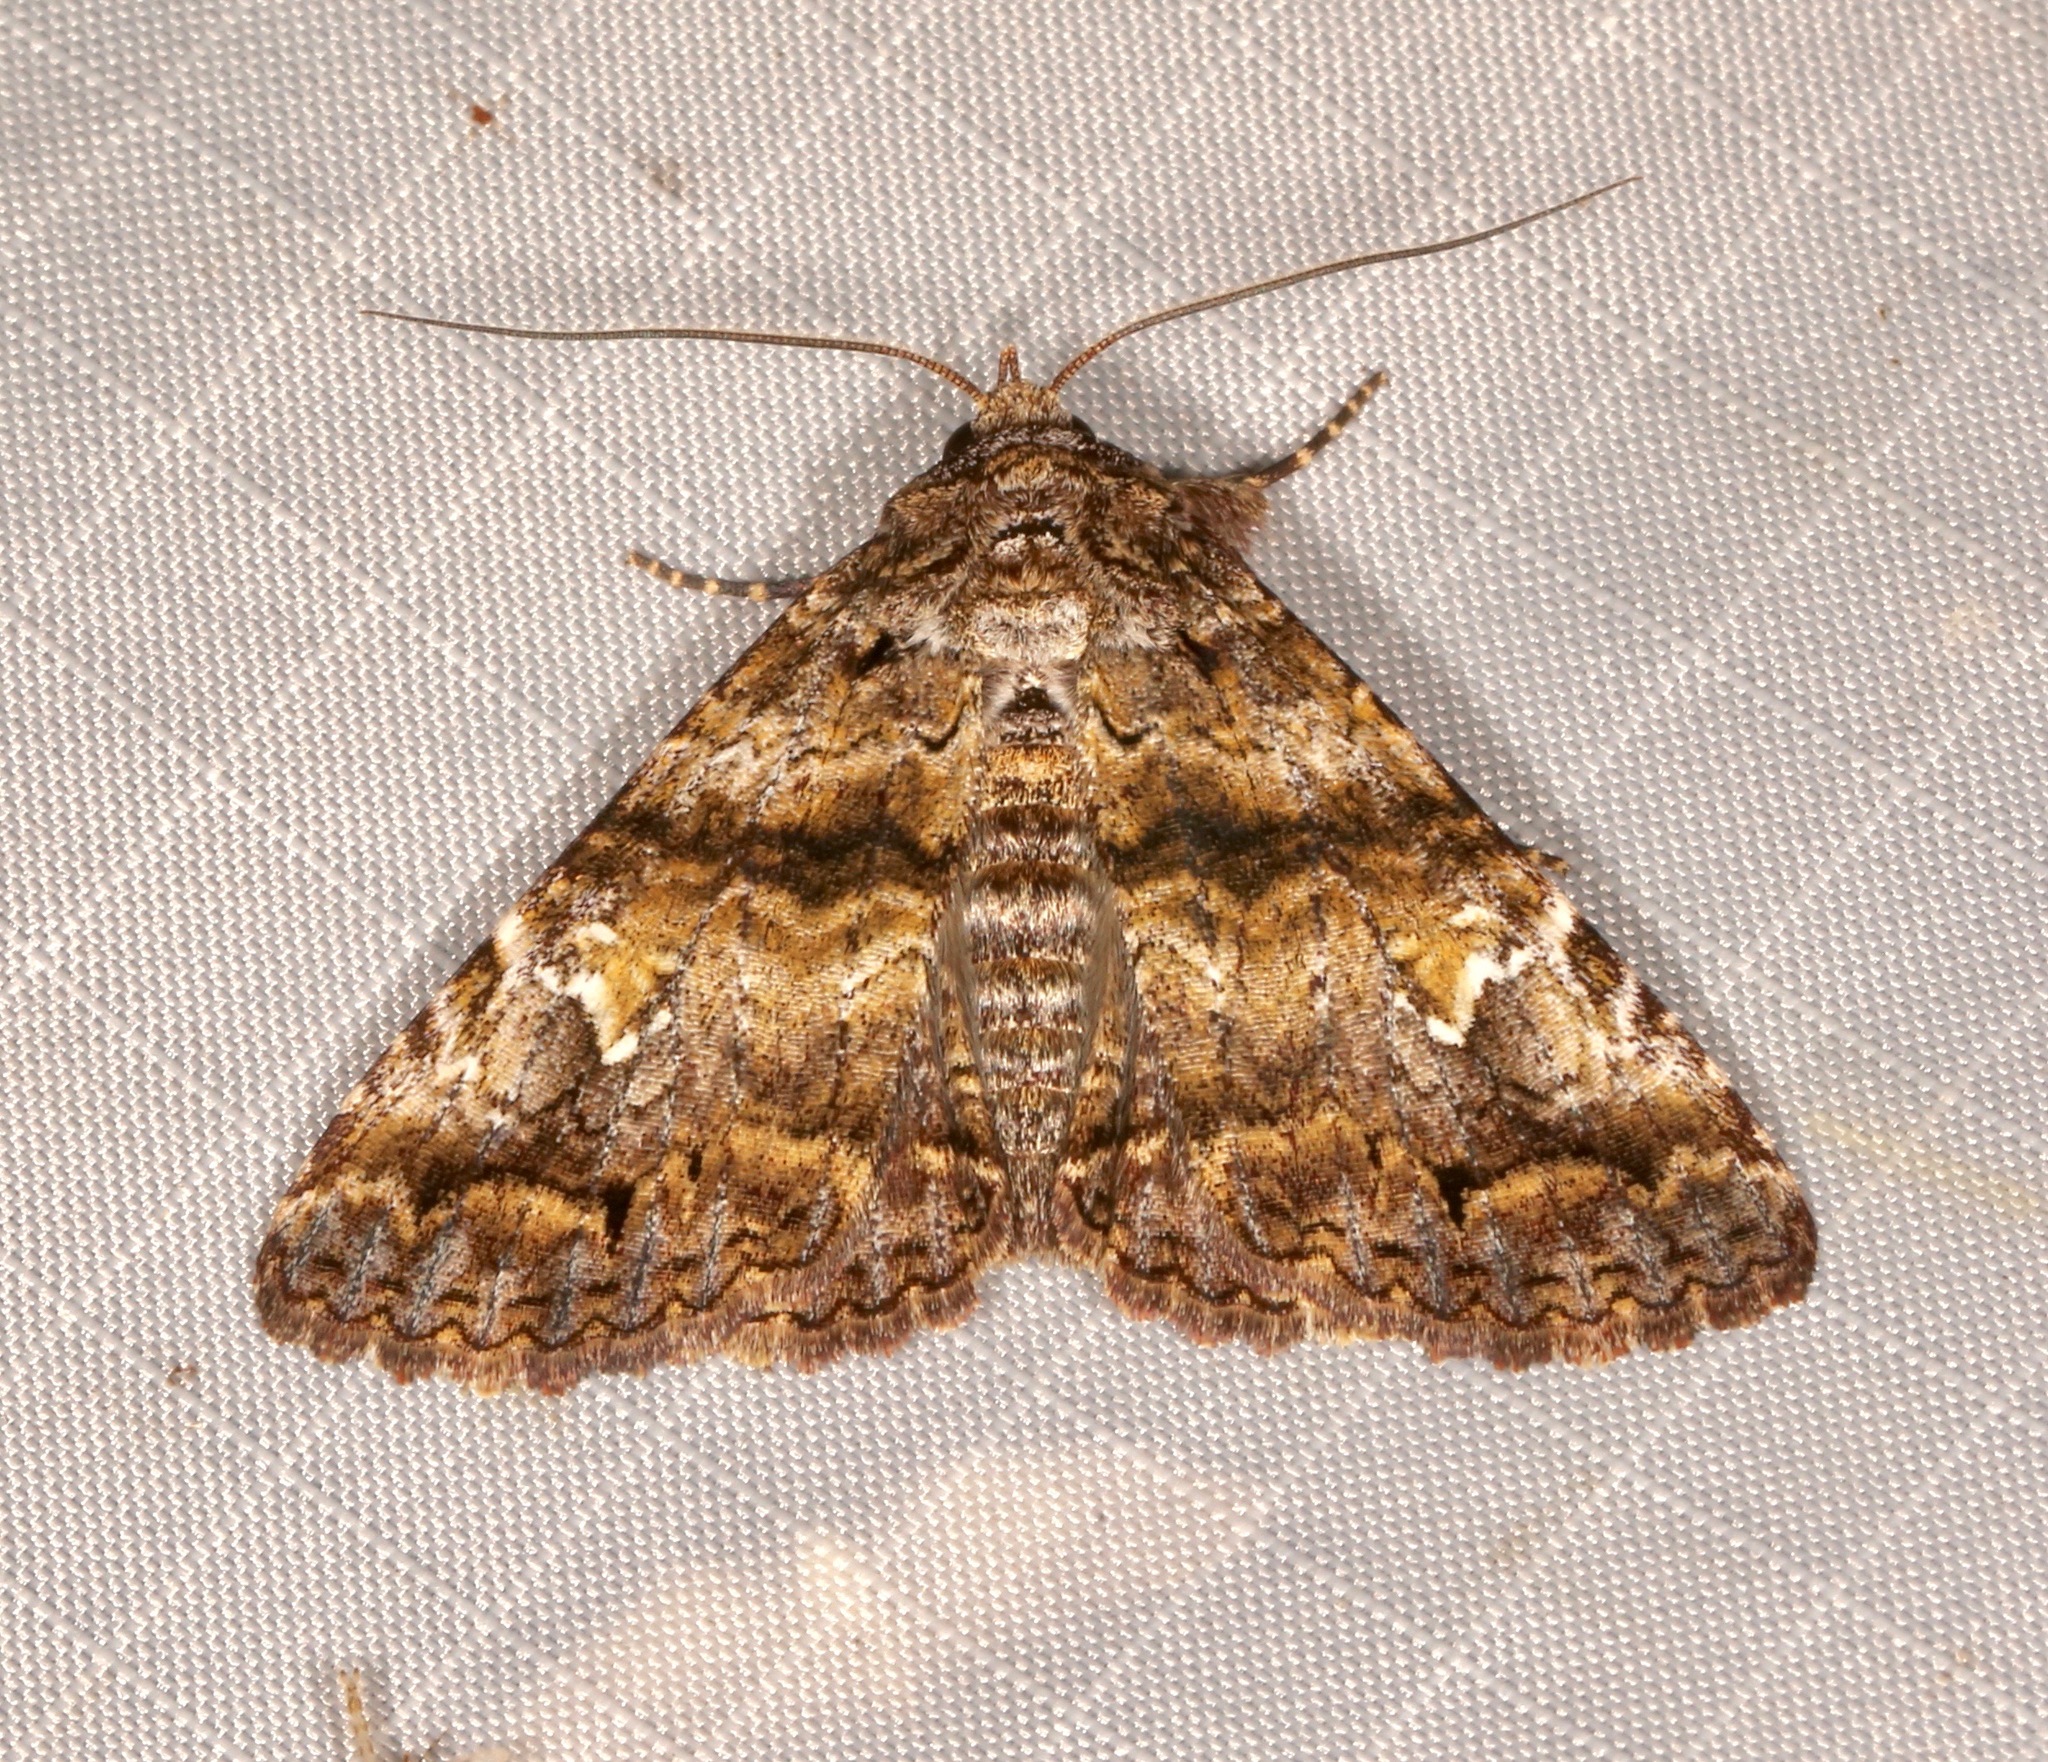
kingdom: Animalia
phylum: Arthropoda
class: Insecta
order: Lepidoptera
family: Erebidae
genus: Metria
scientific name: Metria amella
